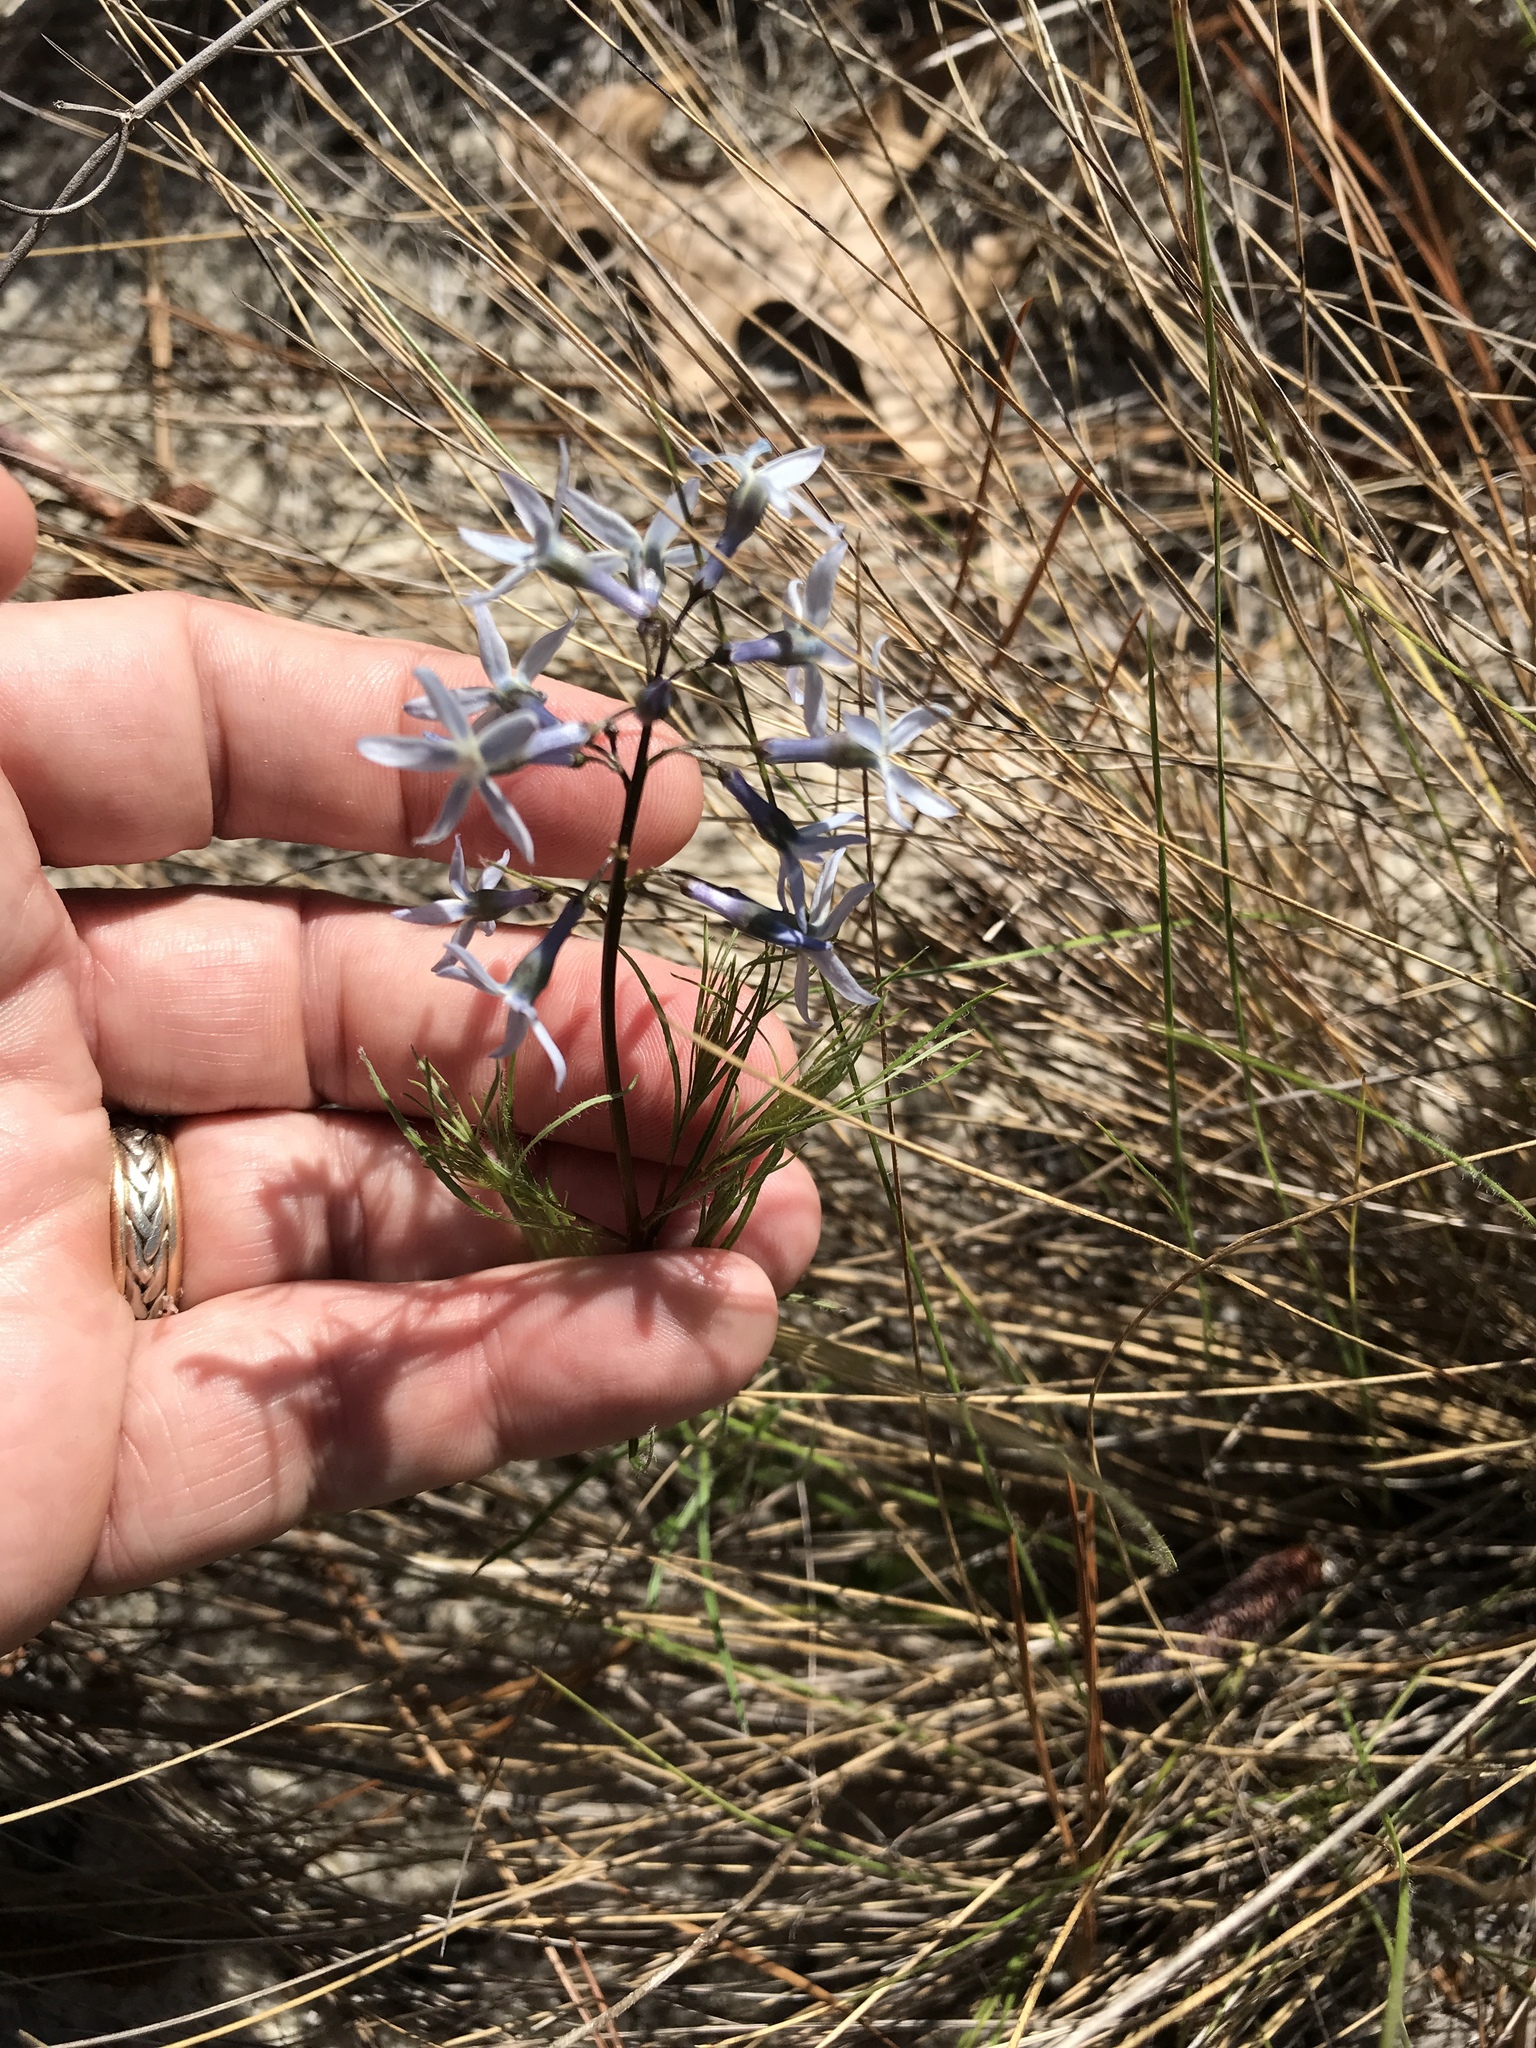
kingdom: Plantae
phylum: Tracheophyta
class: Magnoliopsida
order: Gentianales
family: Apocynaceae
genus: Amsonia
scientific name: Amsonia ciliata
